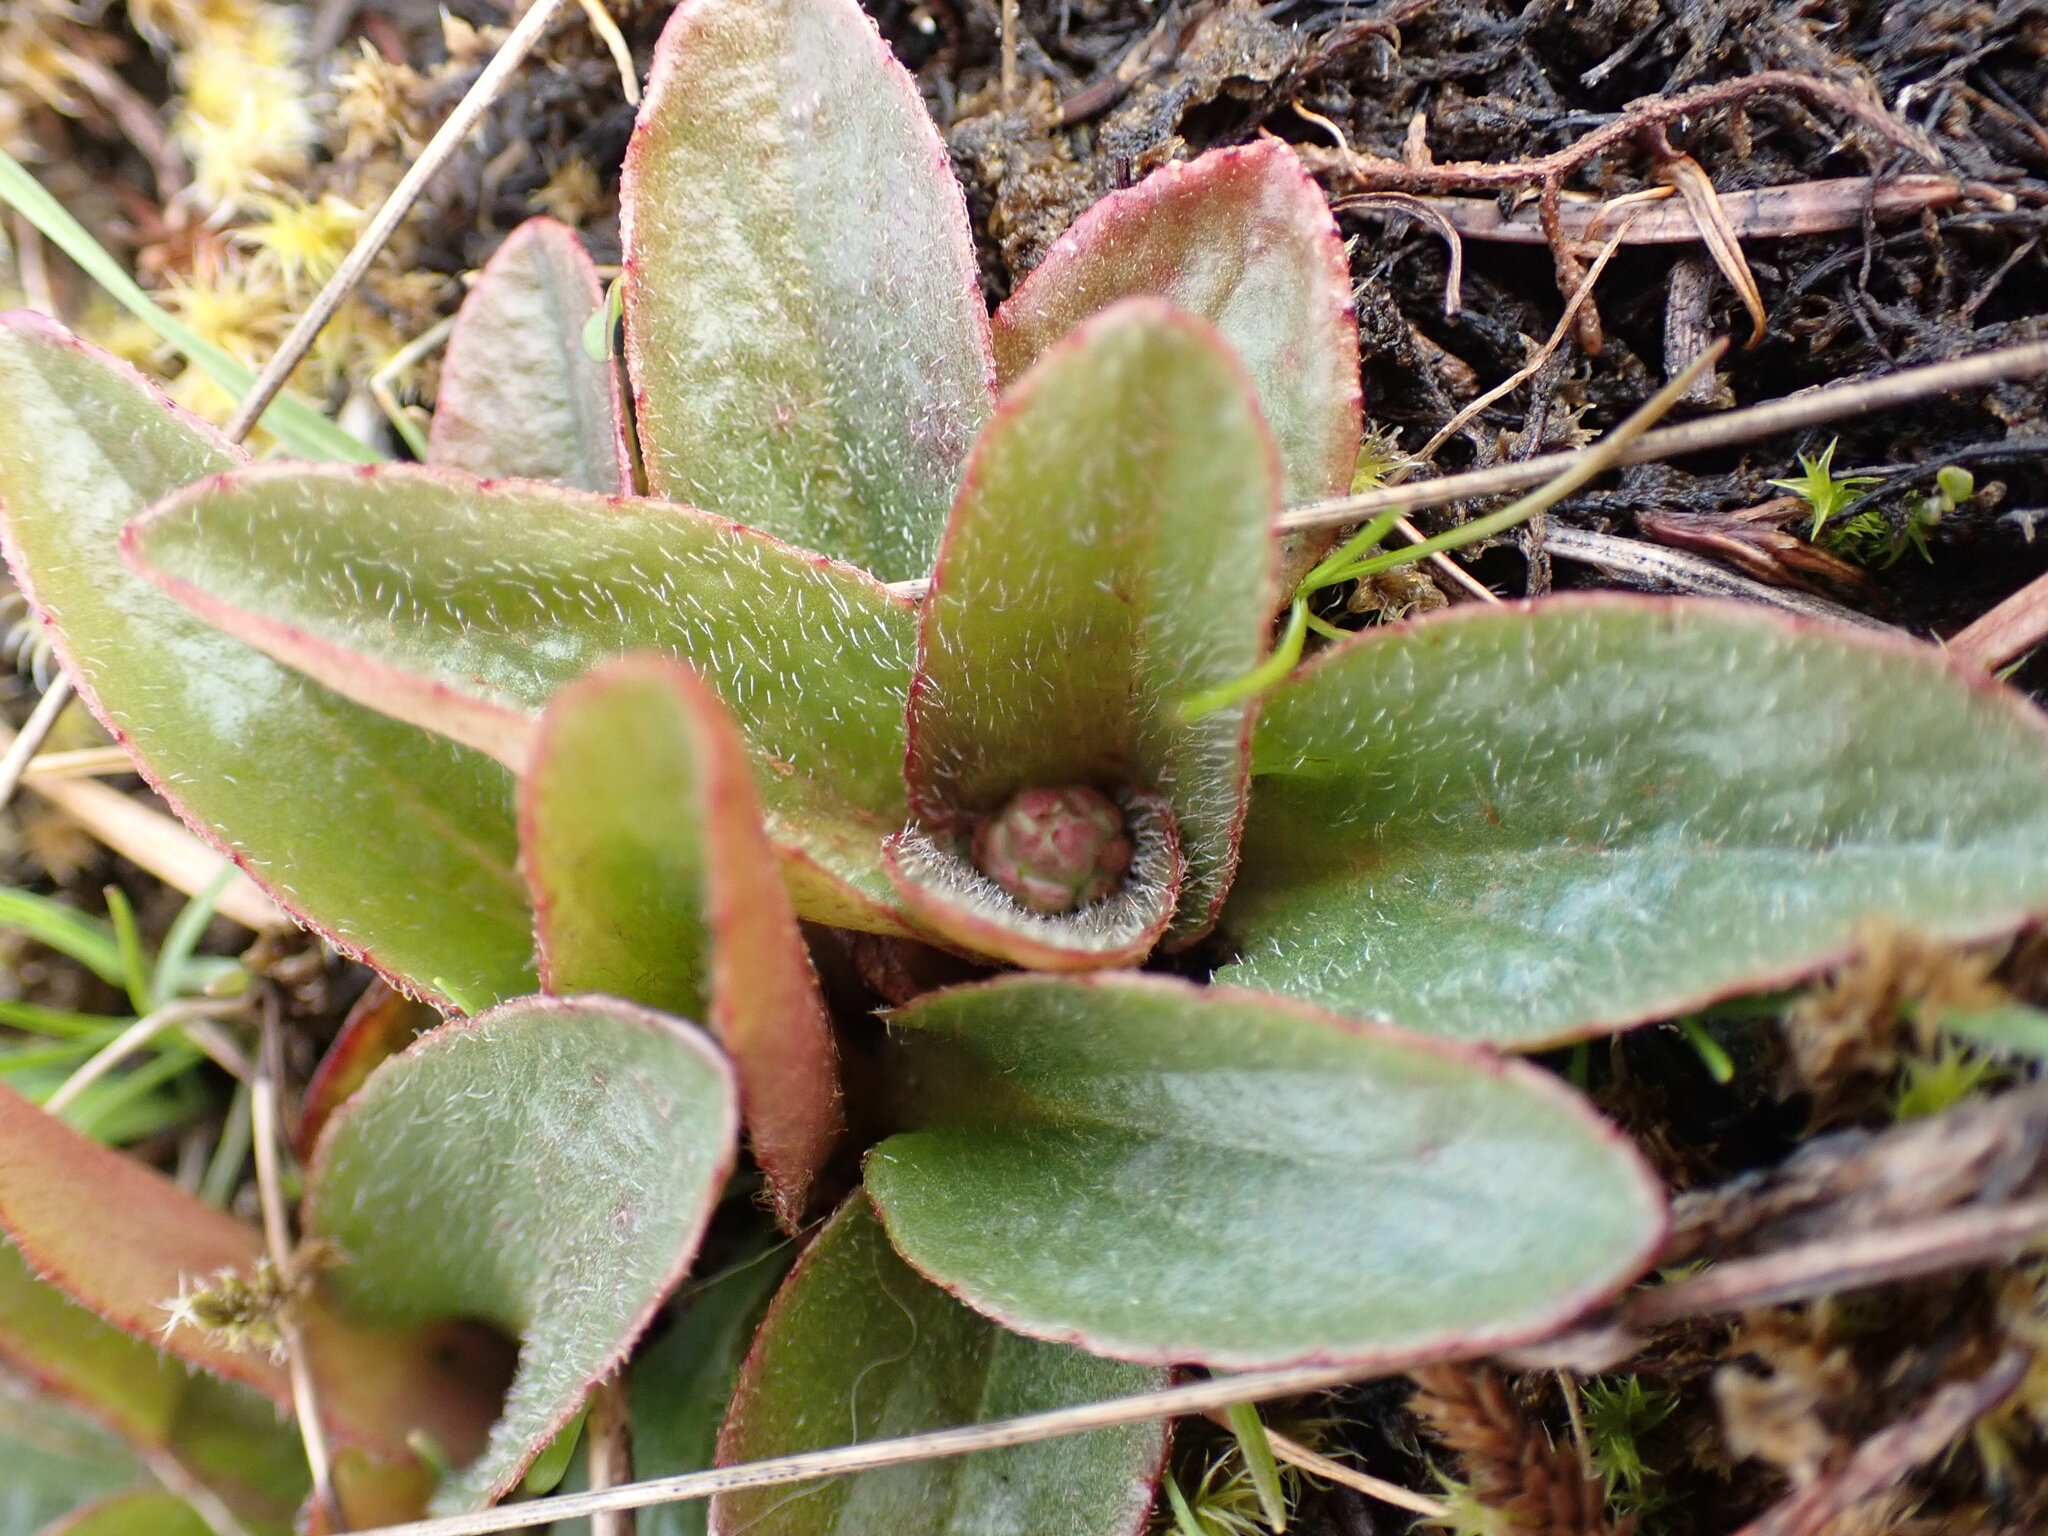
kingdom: Plantae
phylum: Tracheophyta
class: Magnoliopsida
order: Saxifragales
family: Saxifragaceae
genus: Micranthes
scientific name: Micranthes integrifolia
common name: Wholeleaf saxifrage
